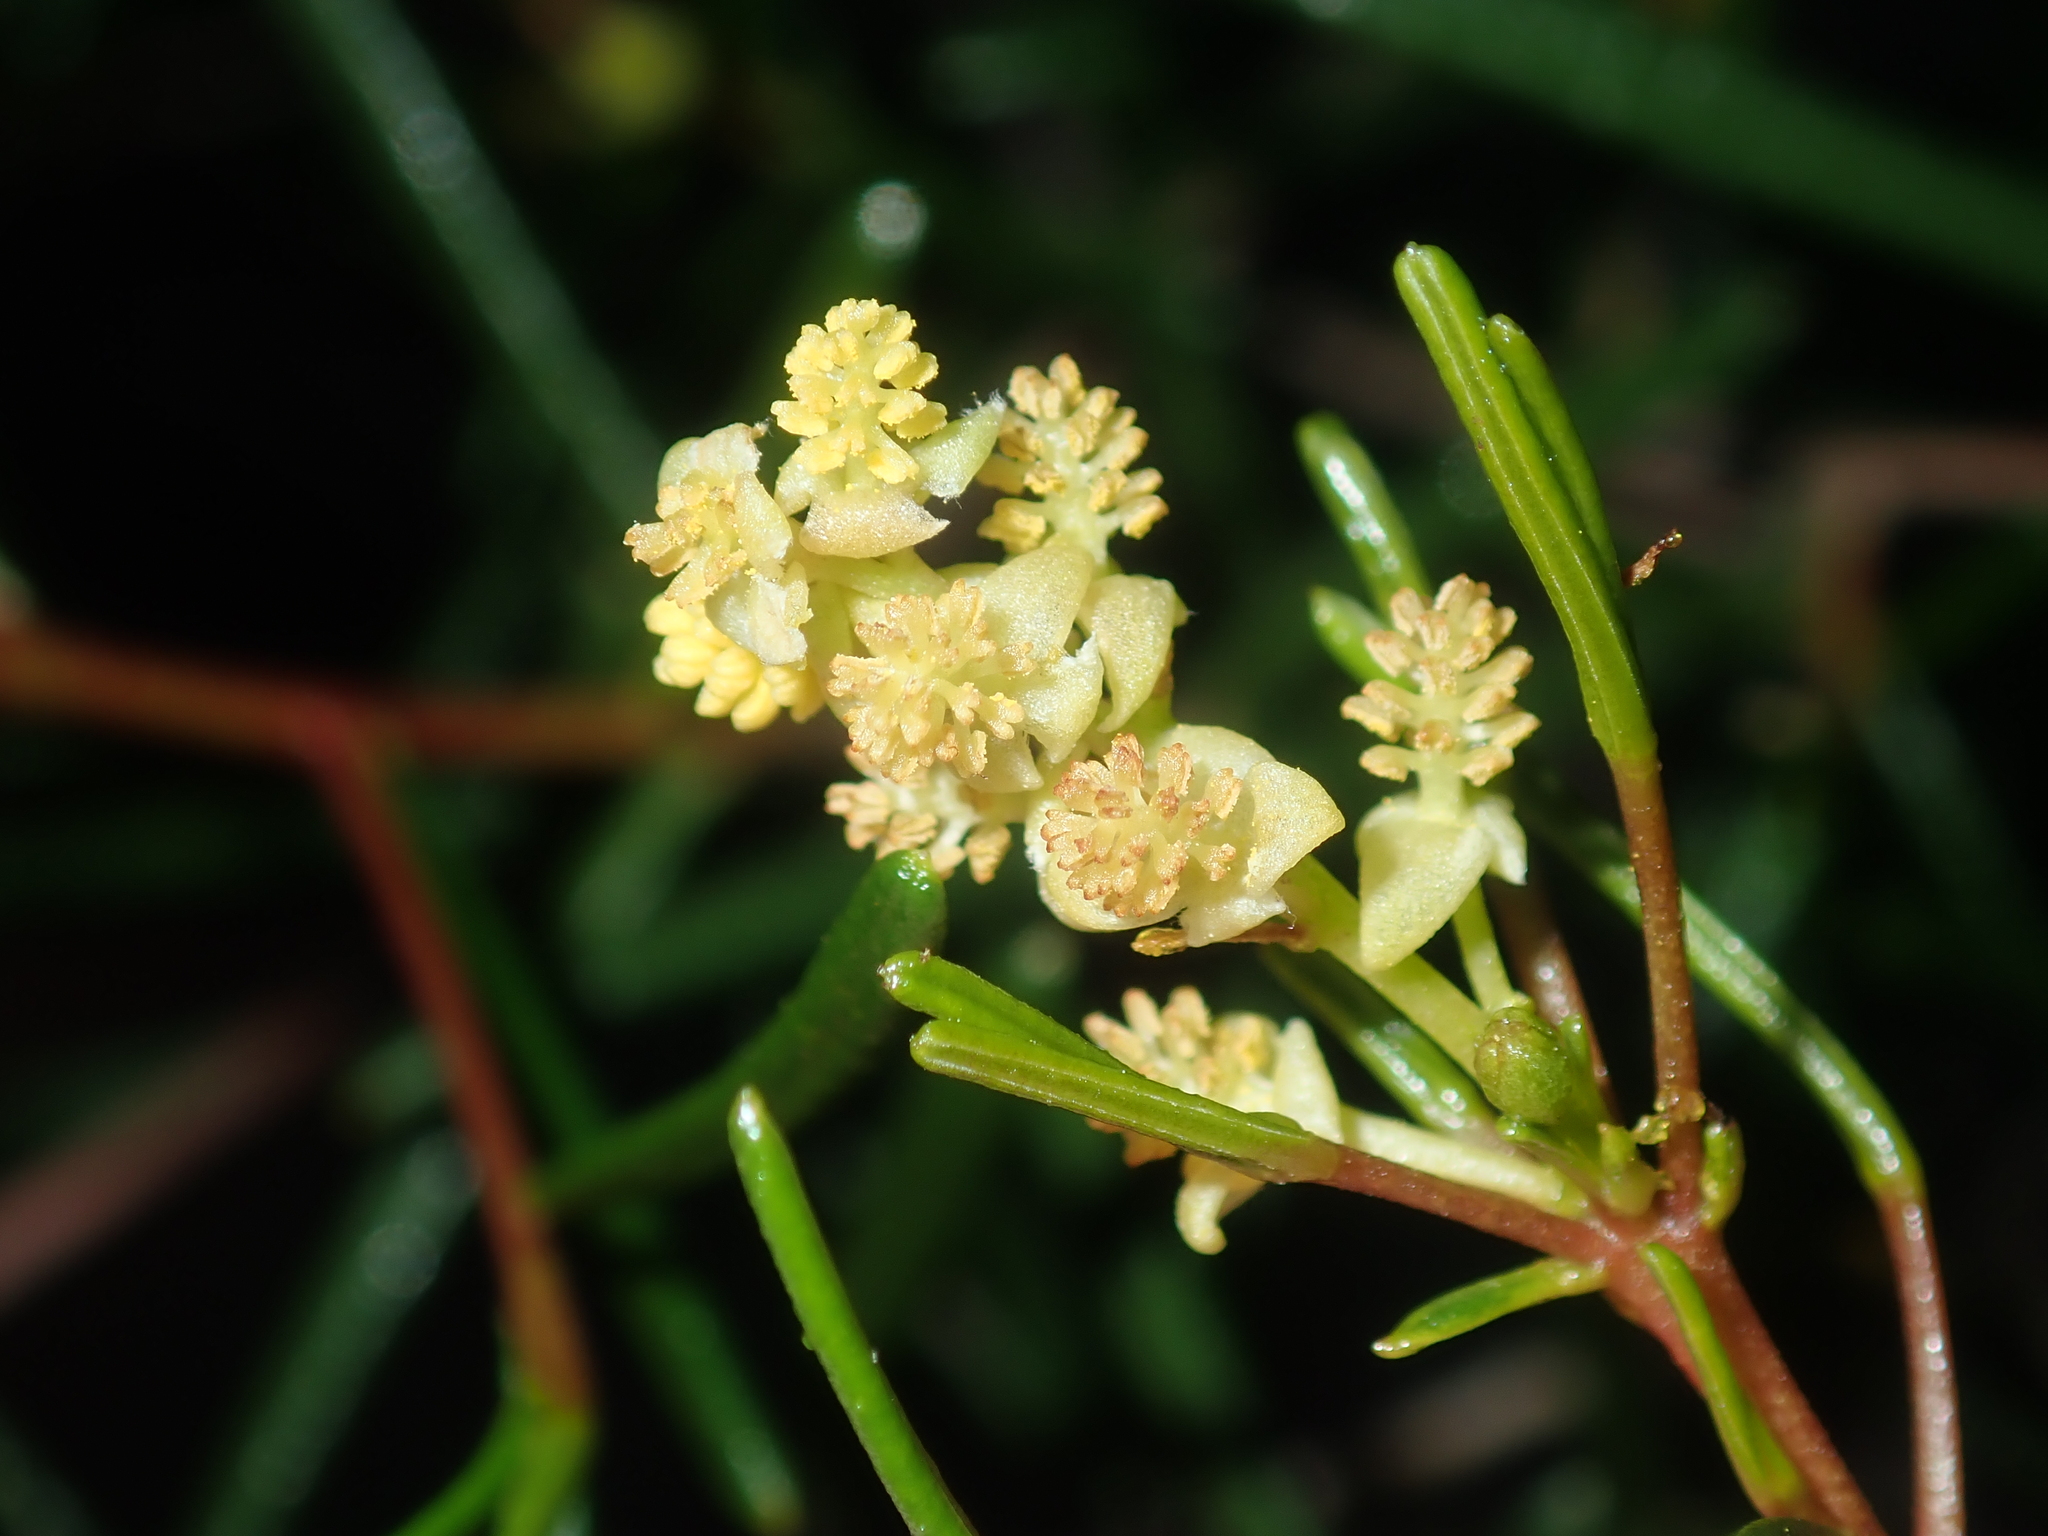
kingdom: Plantae
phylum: Tracheophyta
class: Magnoliopsida
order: Malpighiales
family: Euphorbiaceae
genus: Ricinocarpos
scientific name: Ricinocarpos muricatus
